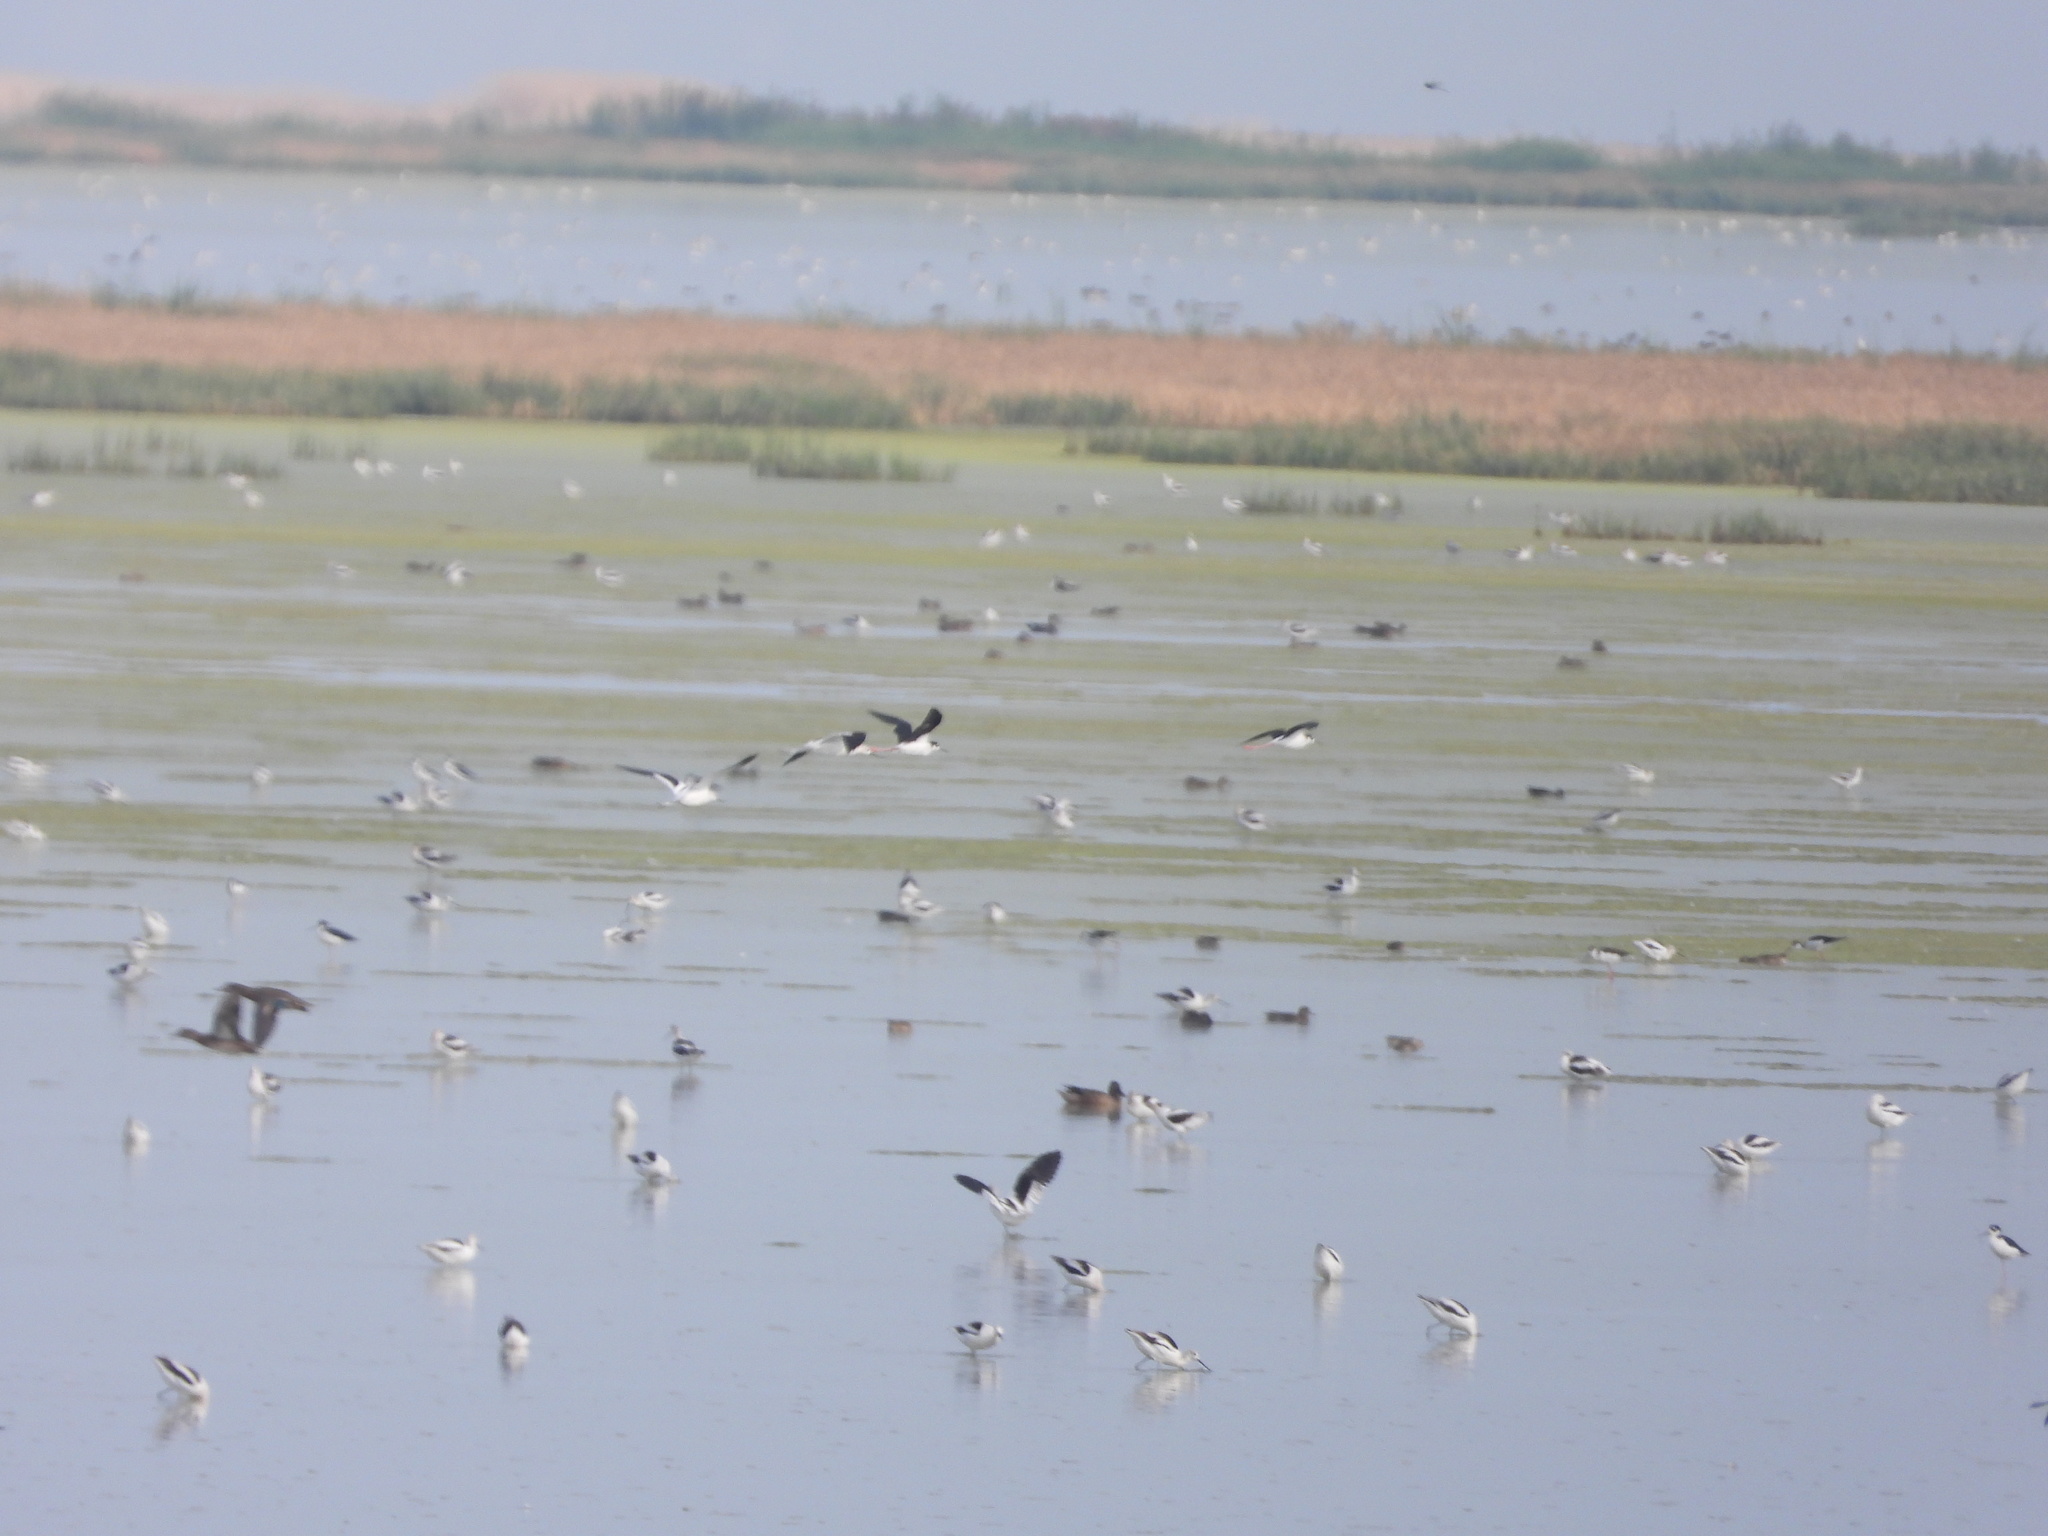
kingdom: Animalia
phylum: Chordata
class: Aves
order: Charadriiformes
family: Recurvirostridae
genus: Himantopus
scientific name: Himantopus mexicanus
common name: Black-necked stilt
